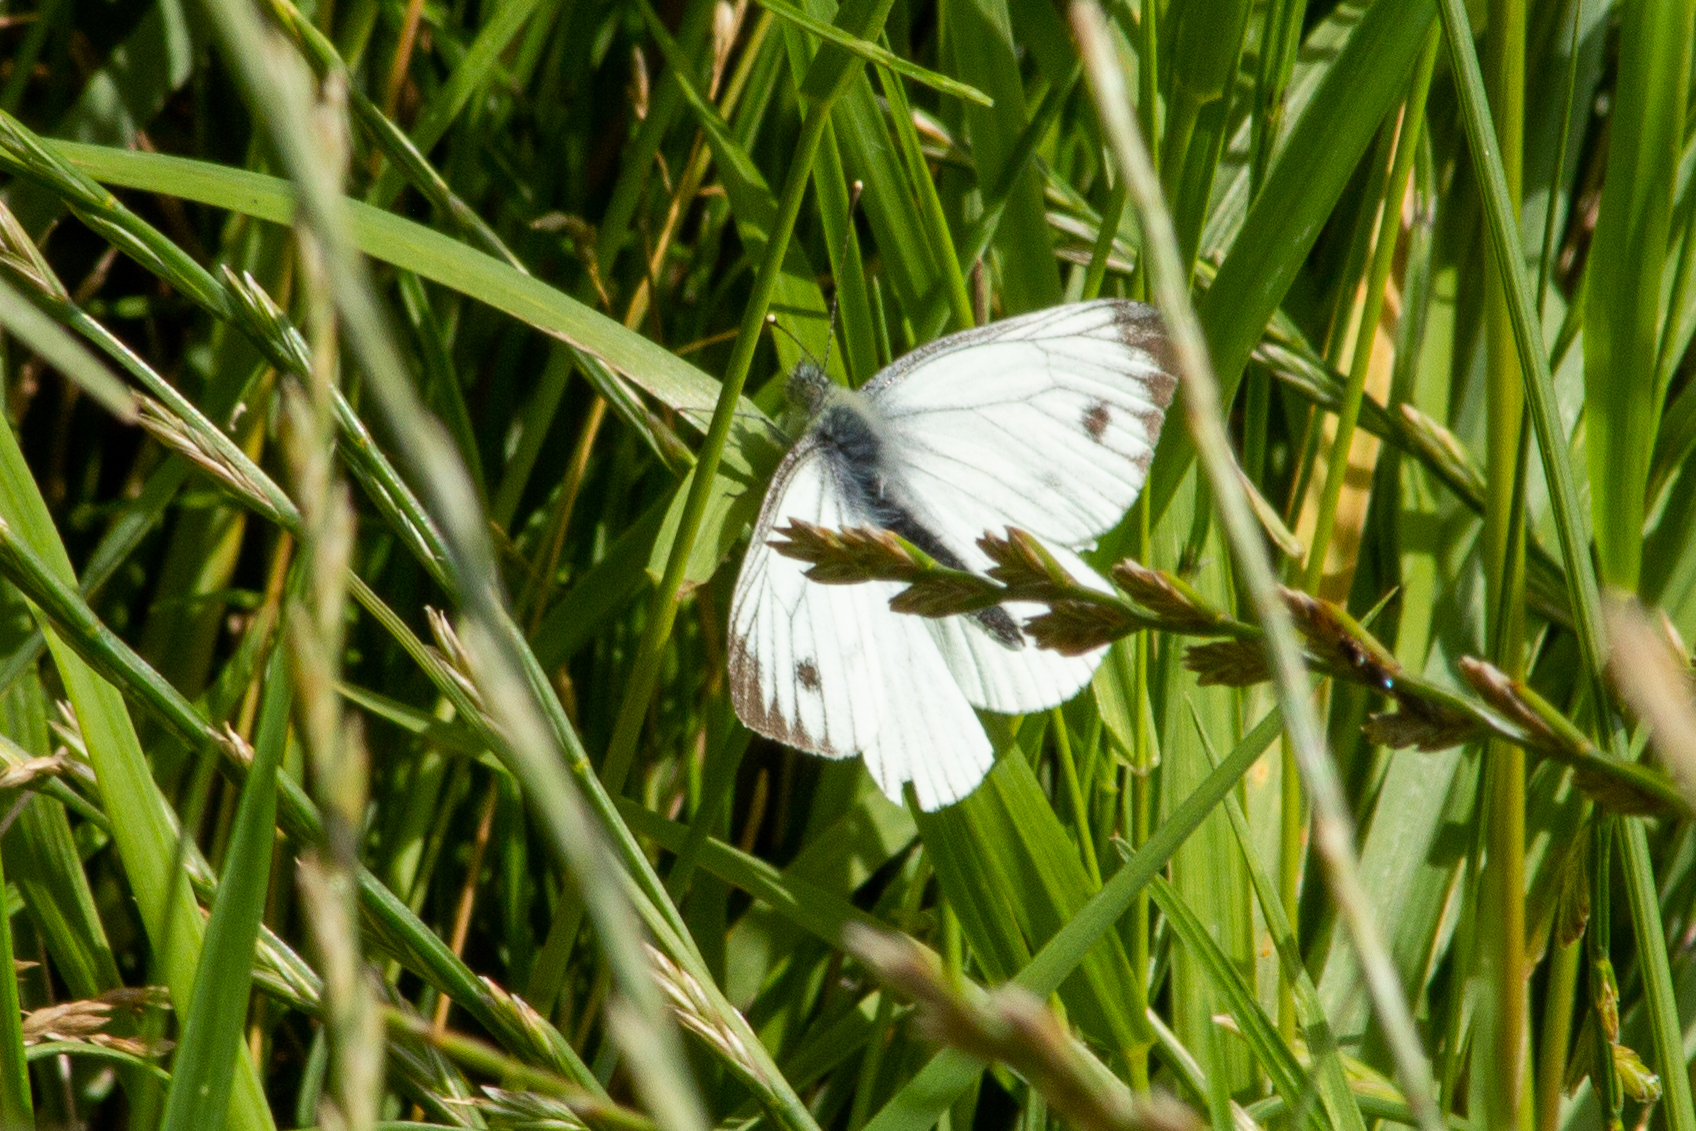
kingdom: Animalia
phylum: Arthropoda
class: Insecta
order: Lepidoptera
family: Pieridae
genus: Pieris
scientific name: Pieris napi
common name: Green-veined white
